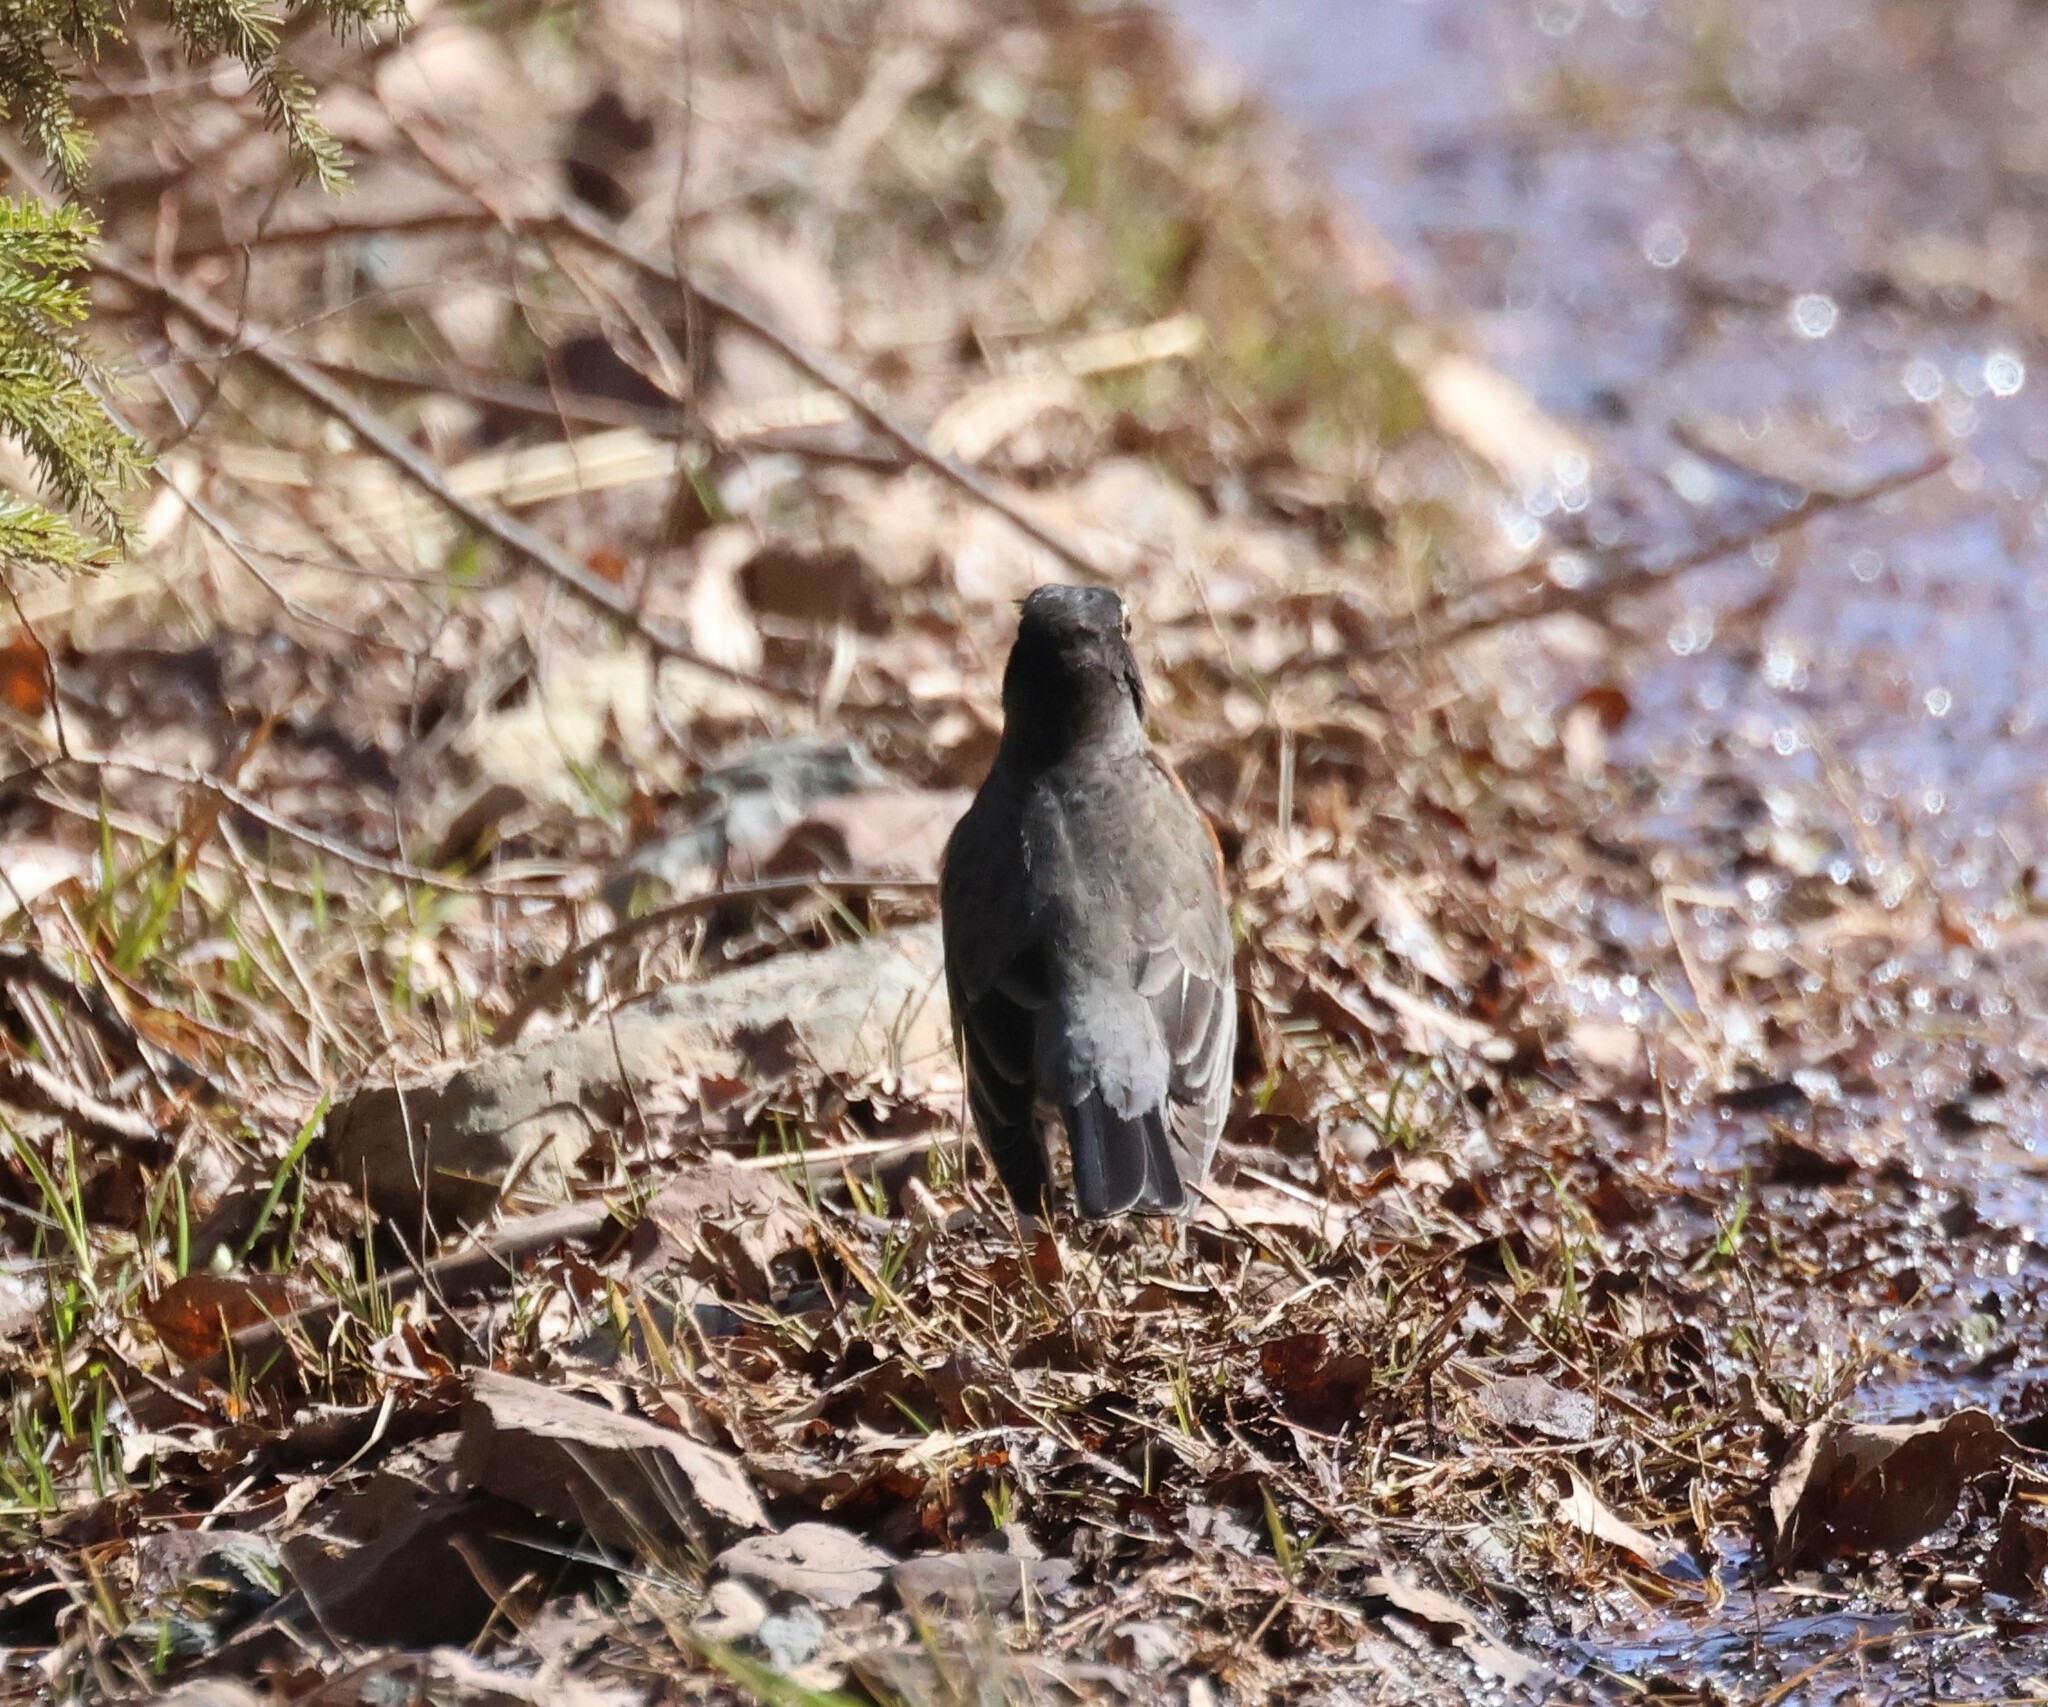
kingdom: Animalia
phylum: Chordata
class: Aves
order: Passeriformes
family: Turdidae
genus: Turdus
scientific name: Turdus migratorius
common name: American robin
